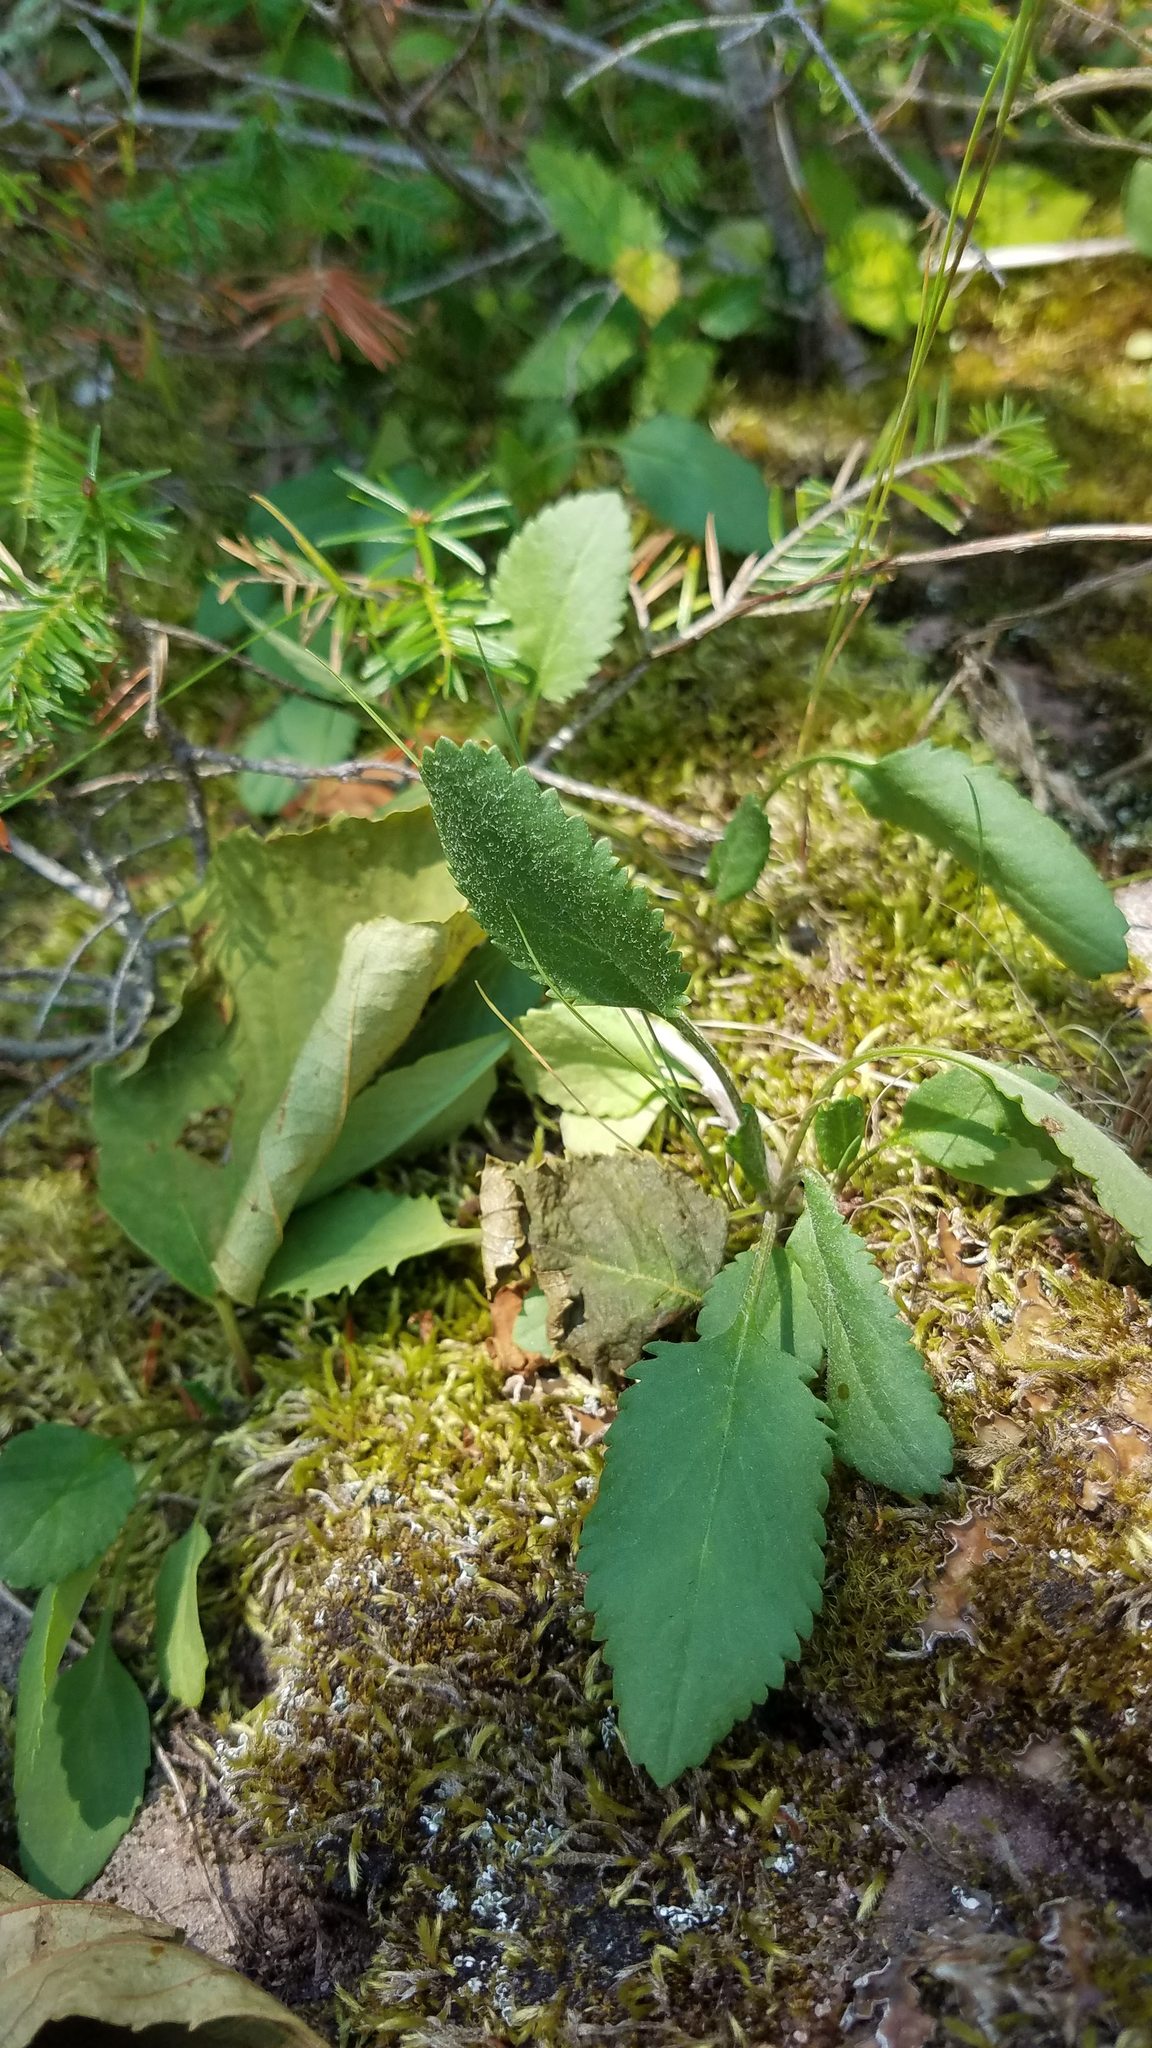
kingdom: Plantae
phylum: Tracheophyta
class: Magnoliopsida
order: Asterales
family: Asteraceae
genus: Packera
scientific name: Packera indecora
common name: Elegant groundsel
